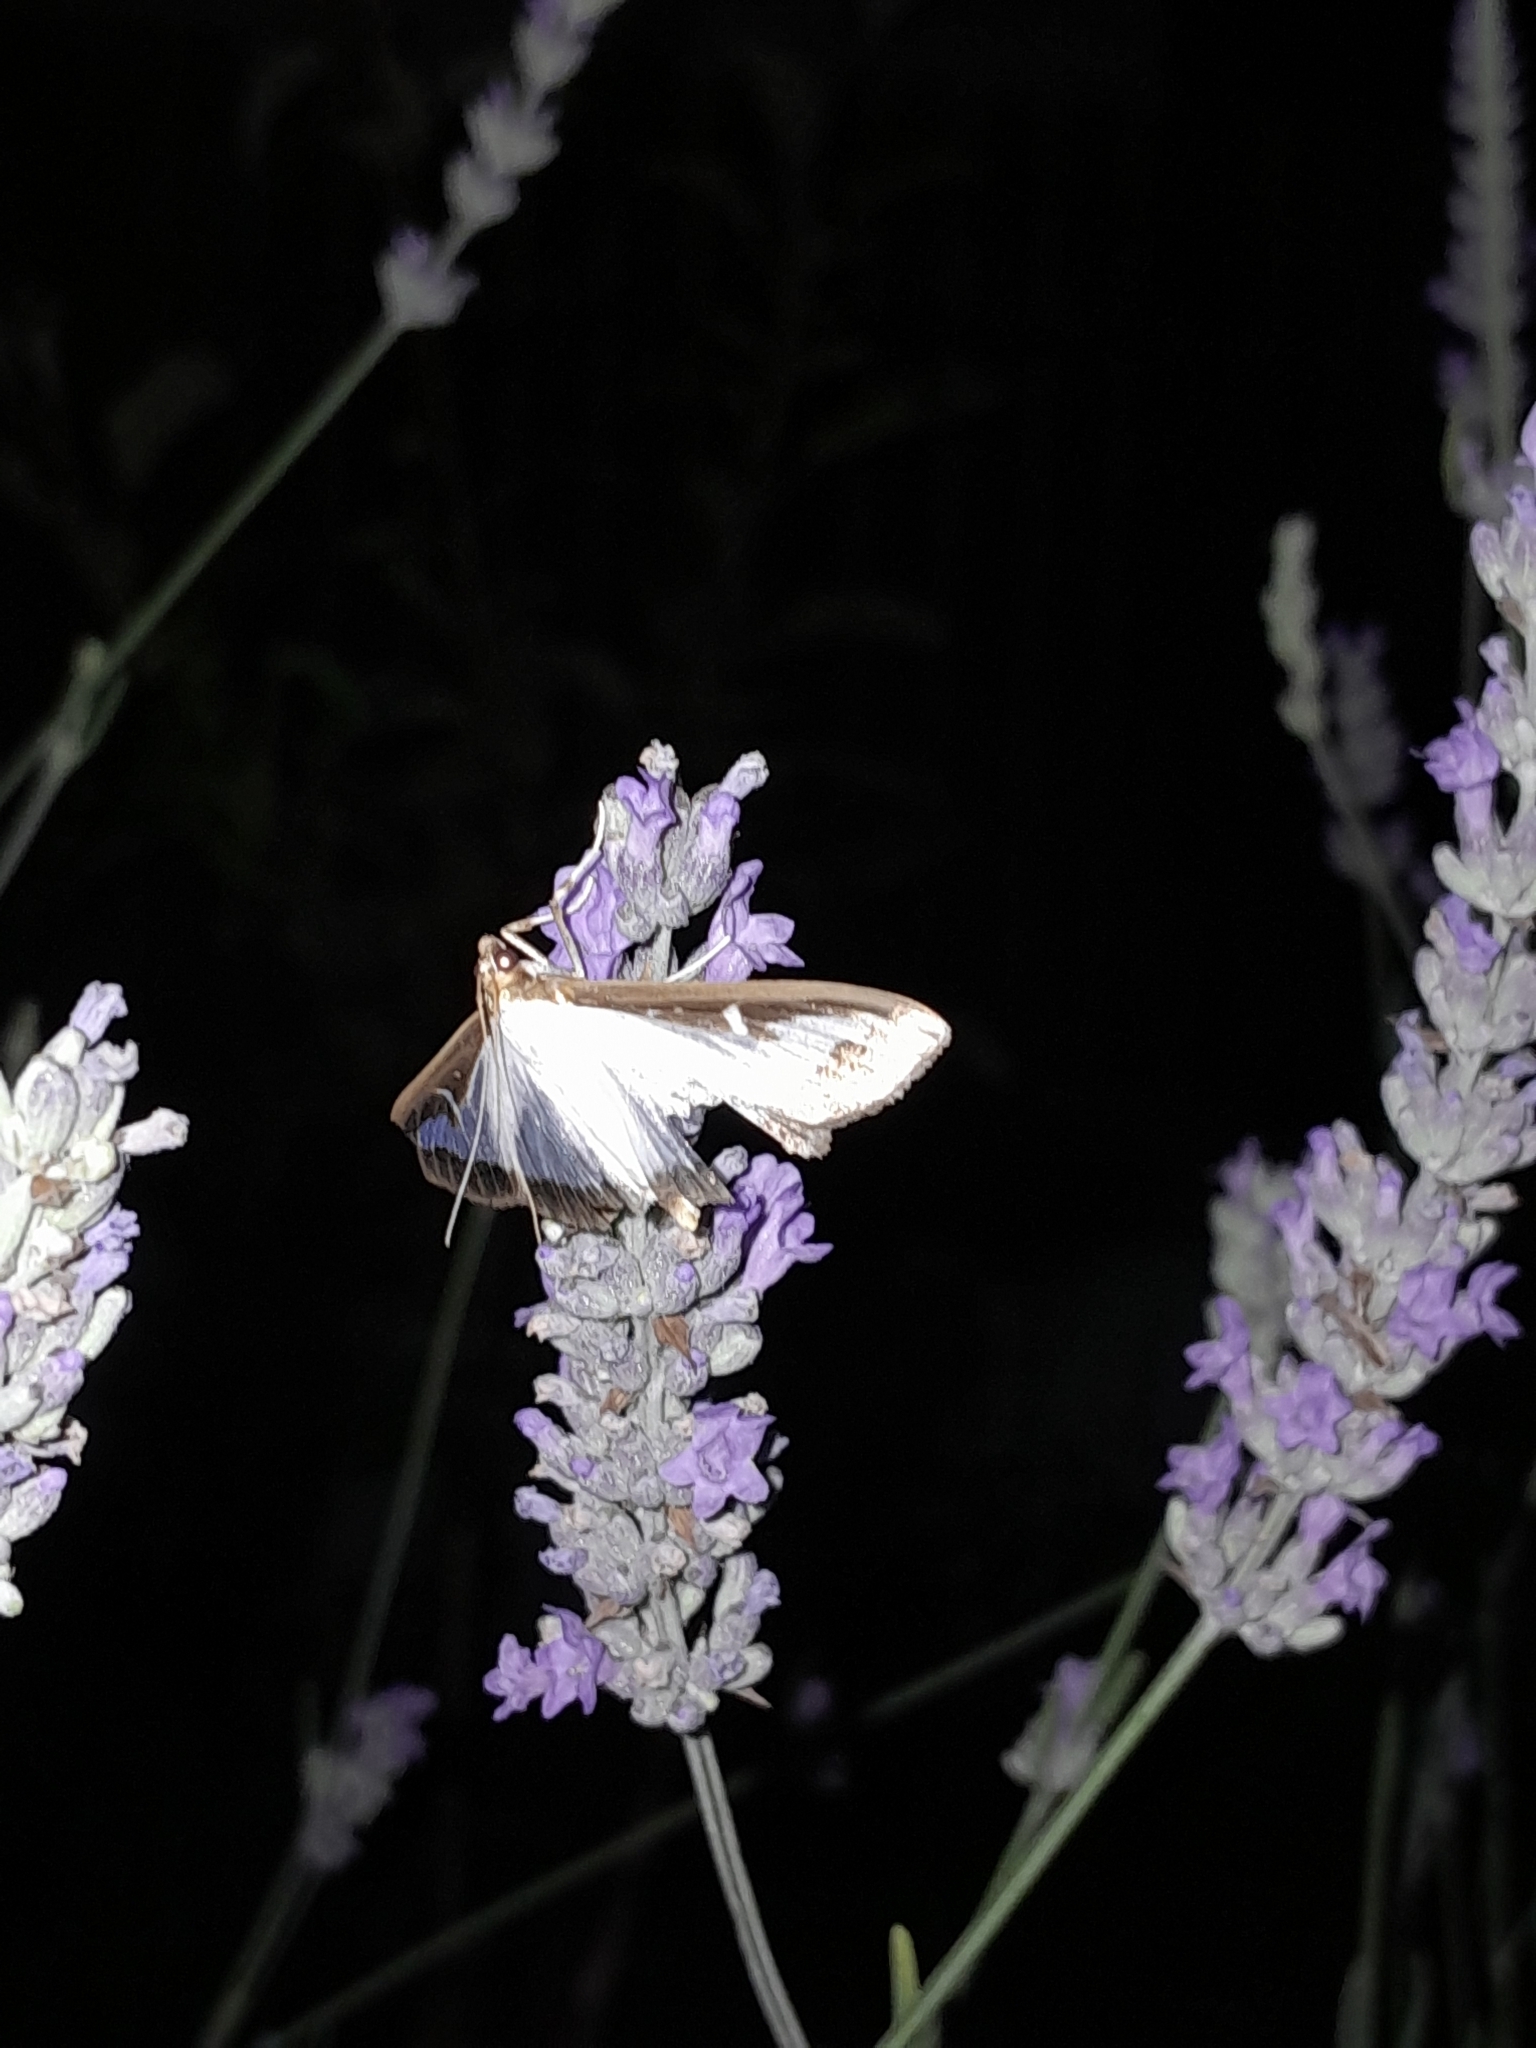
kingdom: Animalia
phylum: Arthropoda
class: Insecta
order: Lepidoptera
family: Crambidae
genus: Cydalima
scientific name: Cydalima perspectalis
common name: Box tree moth
